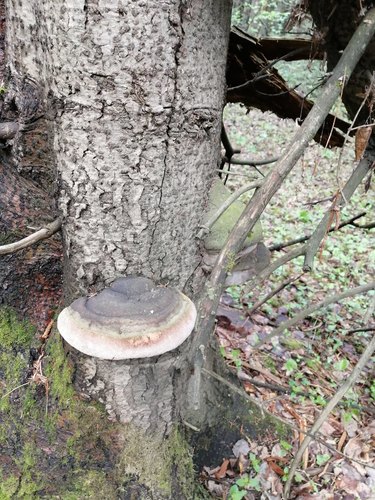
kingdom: Fungi
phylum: Basidiomycota
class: Agaricomycetes
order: Hymenochaetales
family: Hymenochaetaceae
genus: Phellinus
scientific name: Phellinus hartigii
